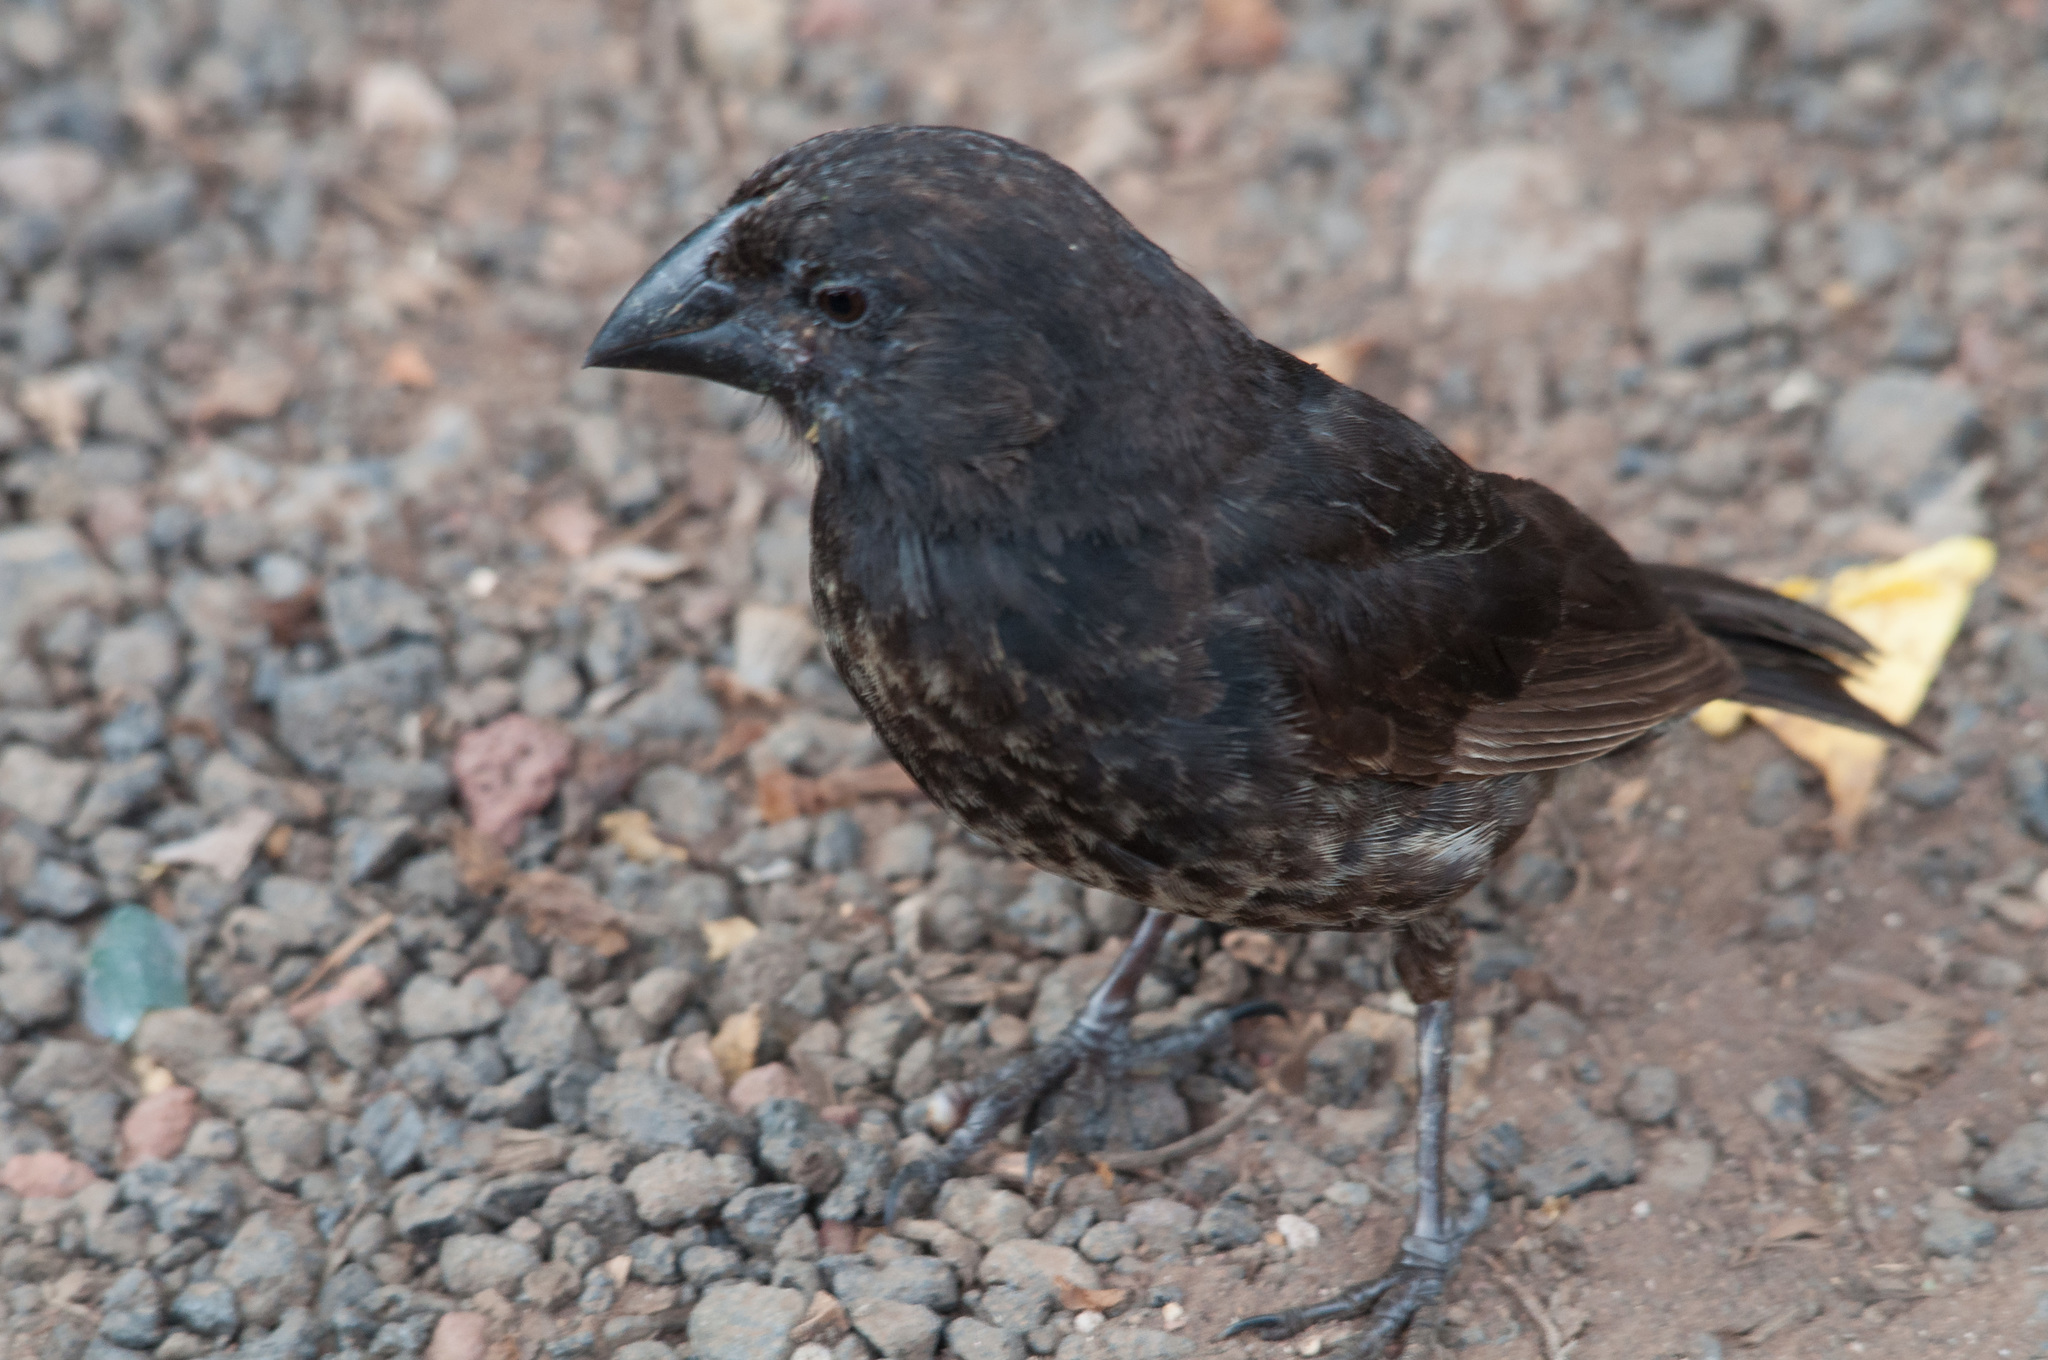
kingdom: Animalia
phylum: Chordata
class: Aves
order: Passeriformes
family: Thraupidae
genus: Geospiza
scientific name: Geospiza fortis
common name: Medium ground finch
